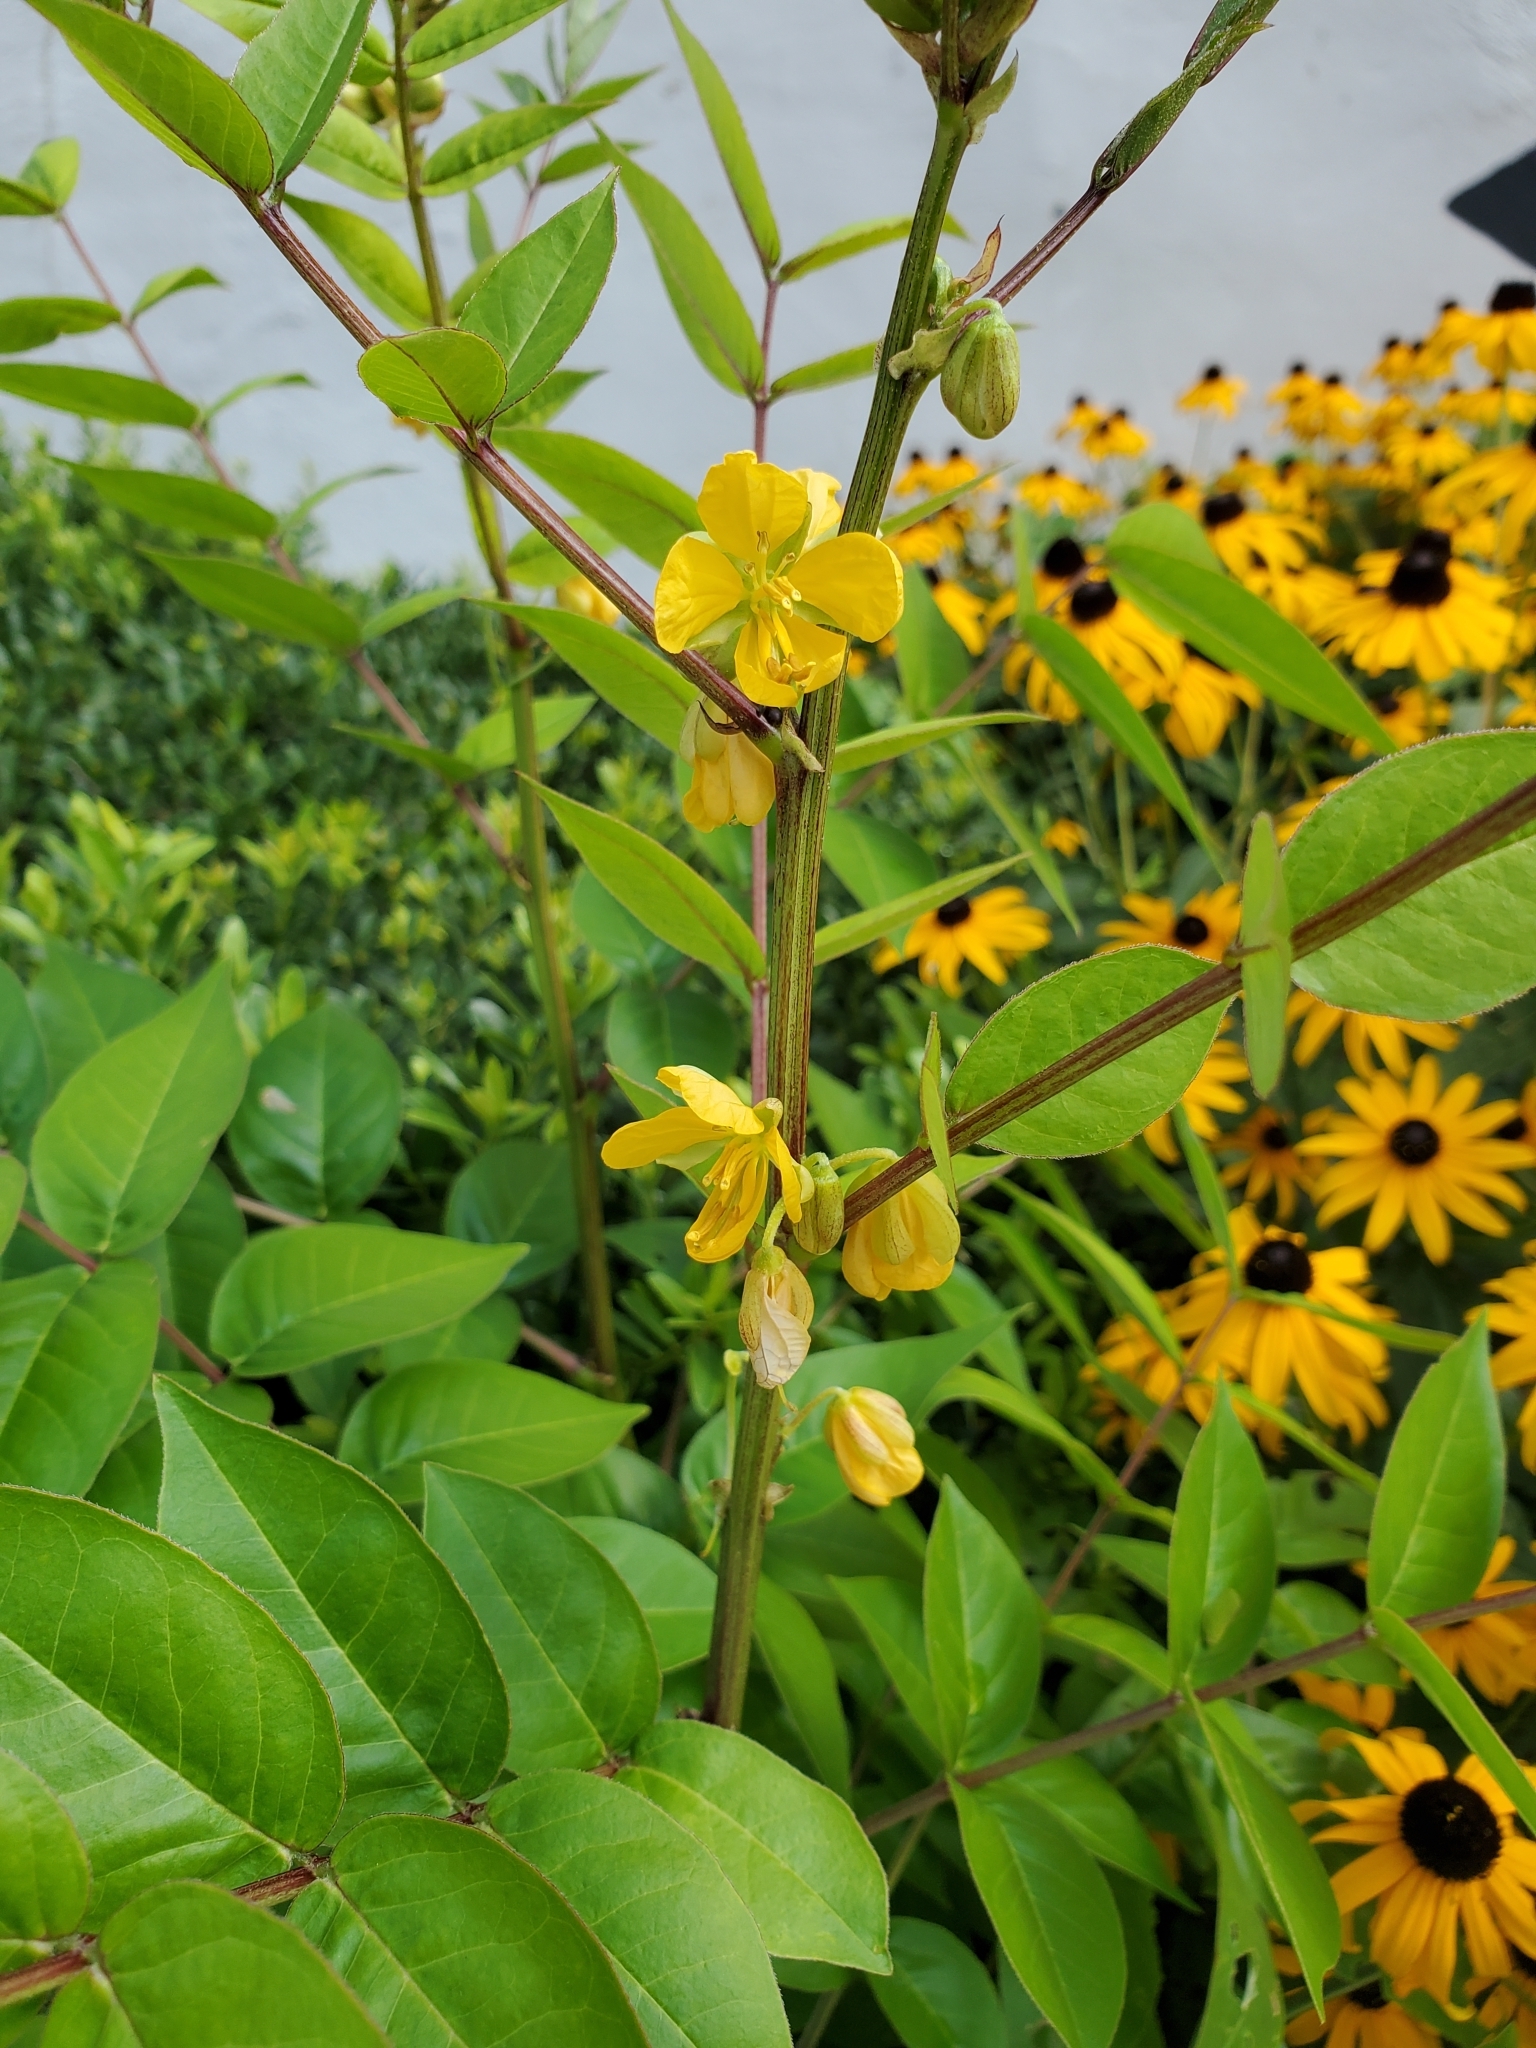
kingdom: Plantae
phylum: Tracheophyta
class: Magnoliopsida
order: Fabales
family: Fabaceae
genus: Senna
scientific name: Senna occidentalis
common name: Septicweed
